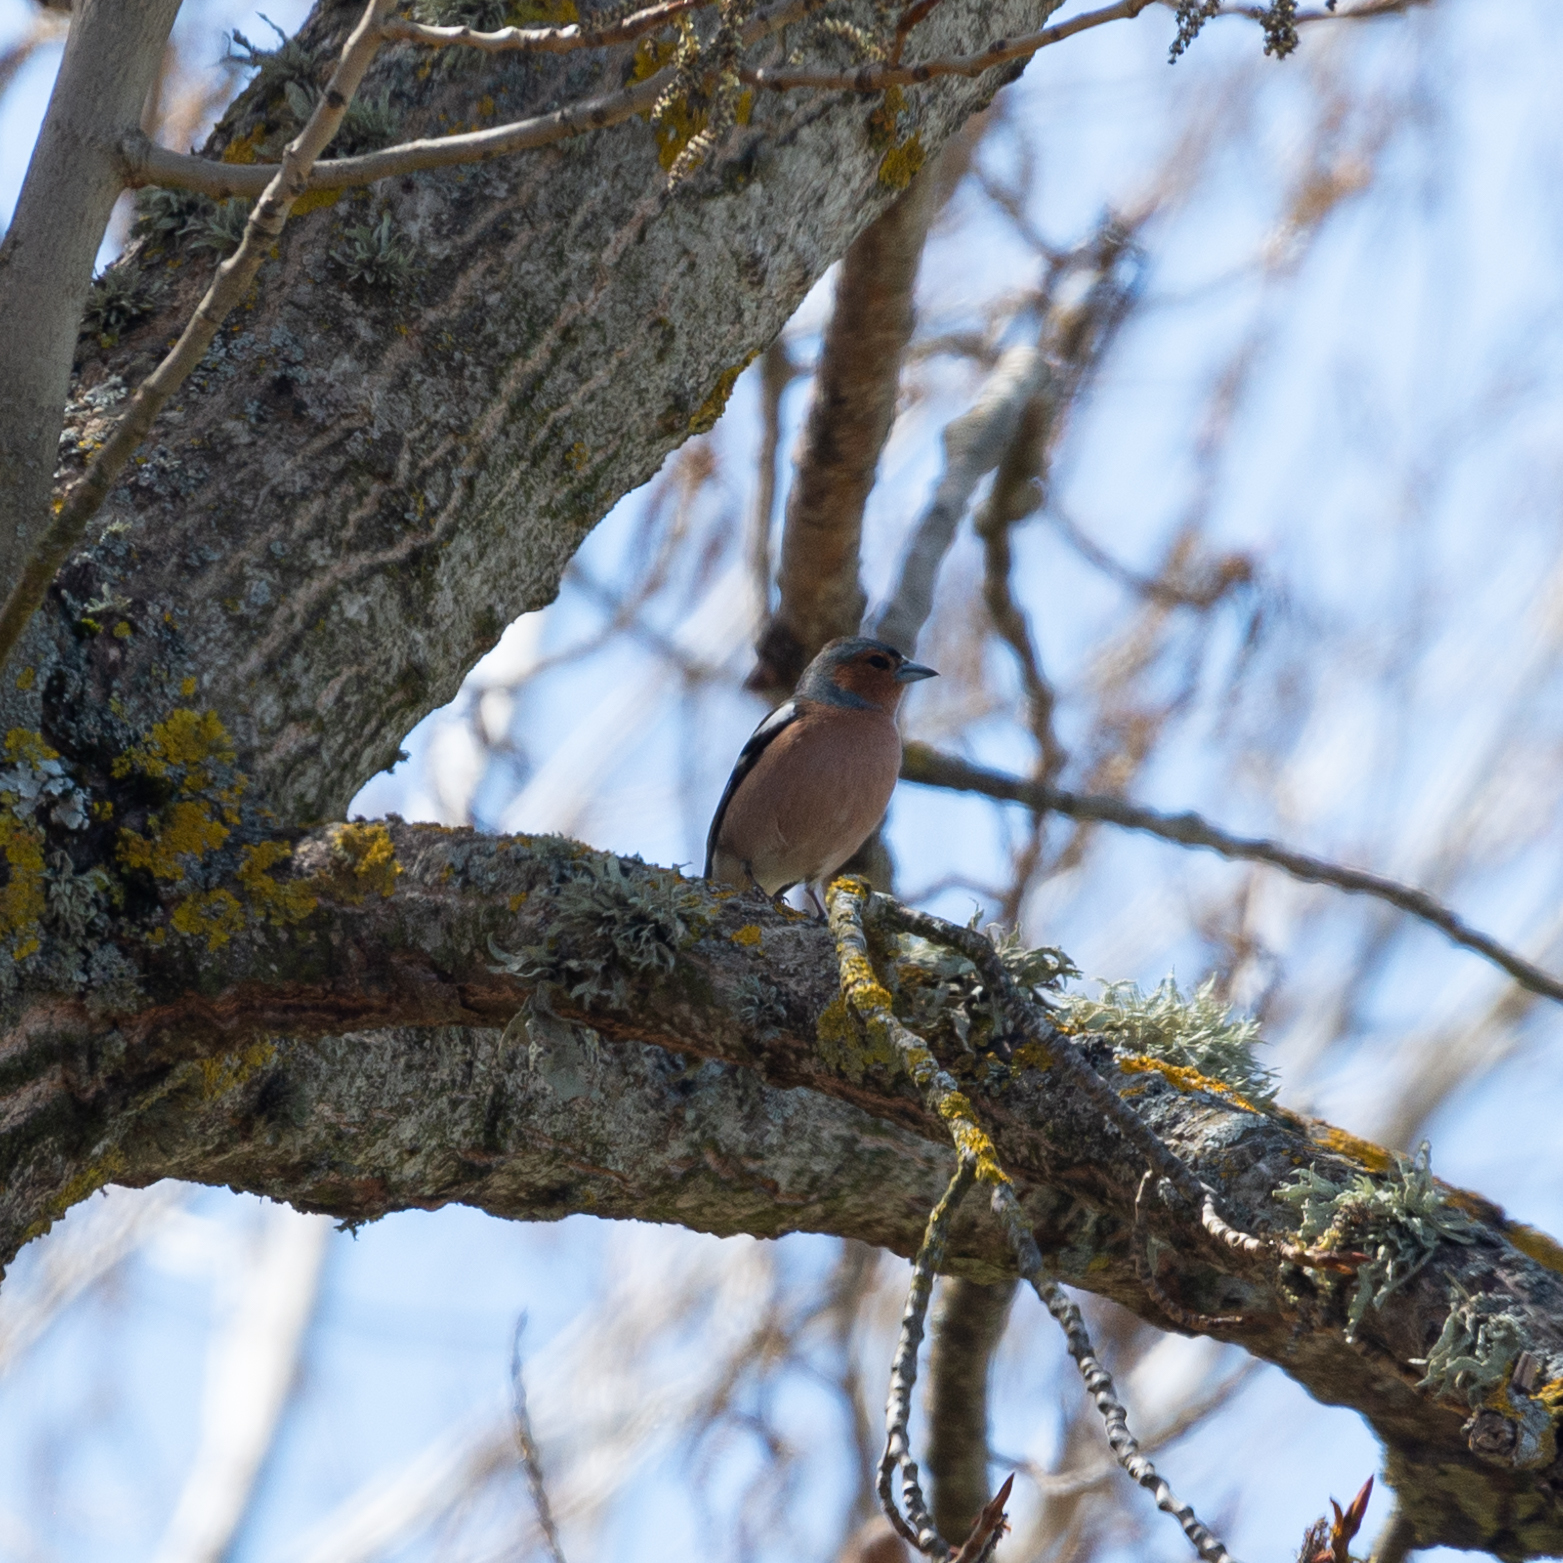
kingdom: Animalia
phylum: Chordata
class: Aves
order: Passeriformes
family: Fringillidae
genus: Fringilla
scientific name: Fringilla coelebs
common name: Common chaffinch
